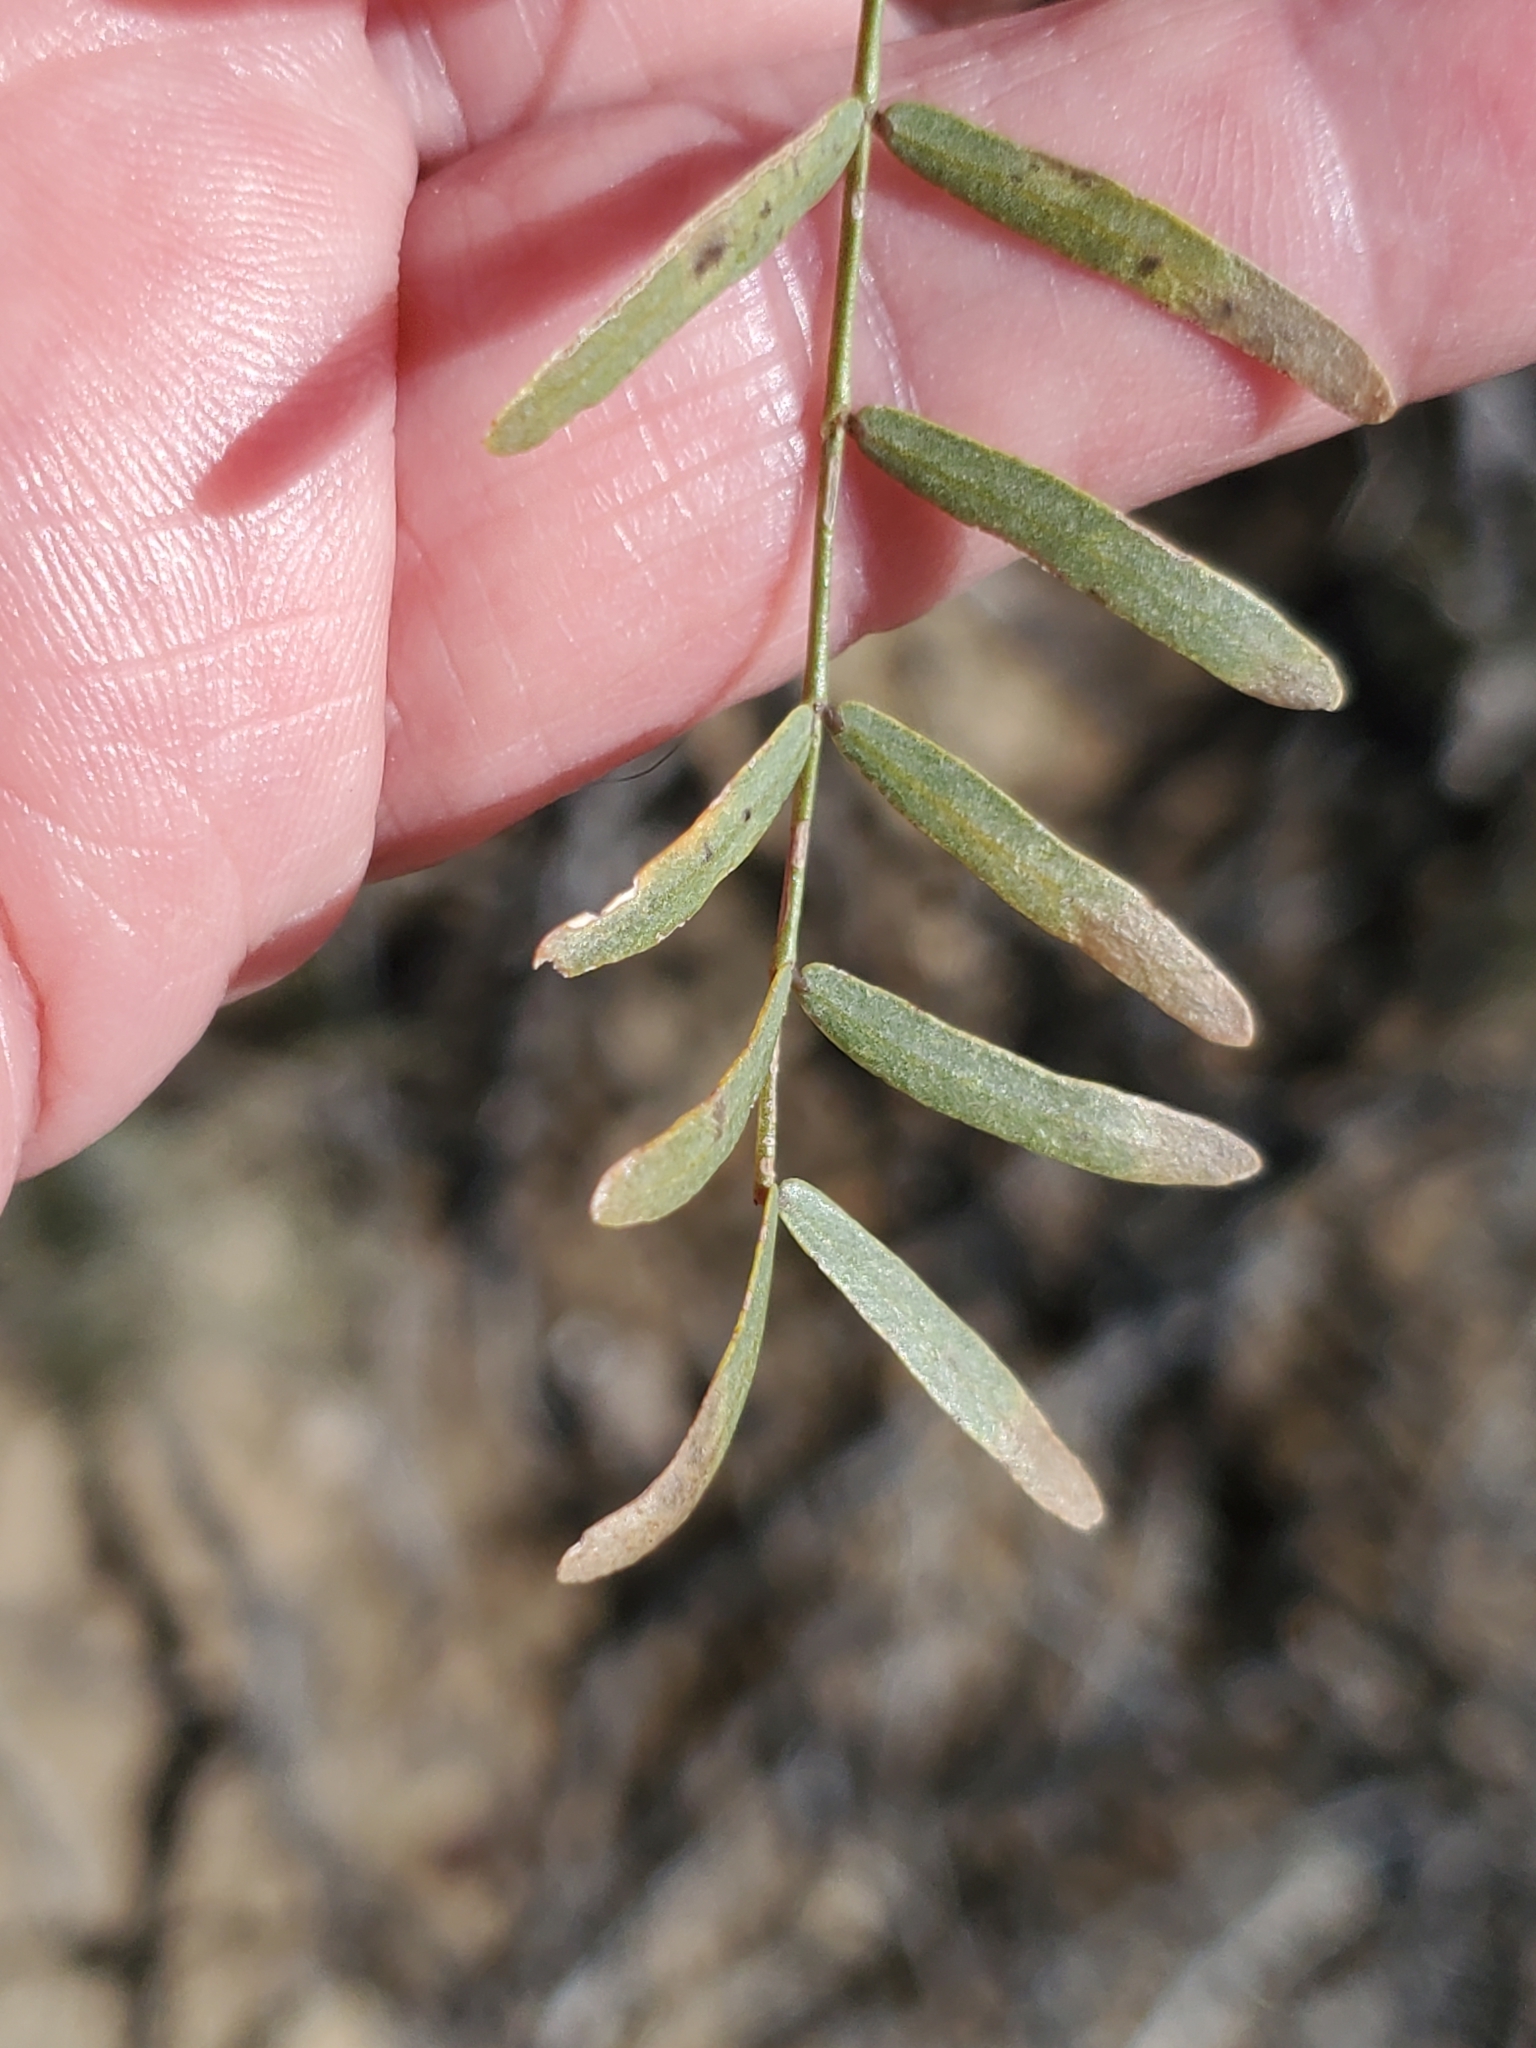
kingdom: Plantae
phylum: Tracheophyta
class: Magnoliopsida
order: Fabales
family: Fabaceae
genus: Prosopis
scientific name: Prosopis pubescens
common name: Screw-bean
